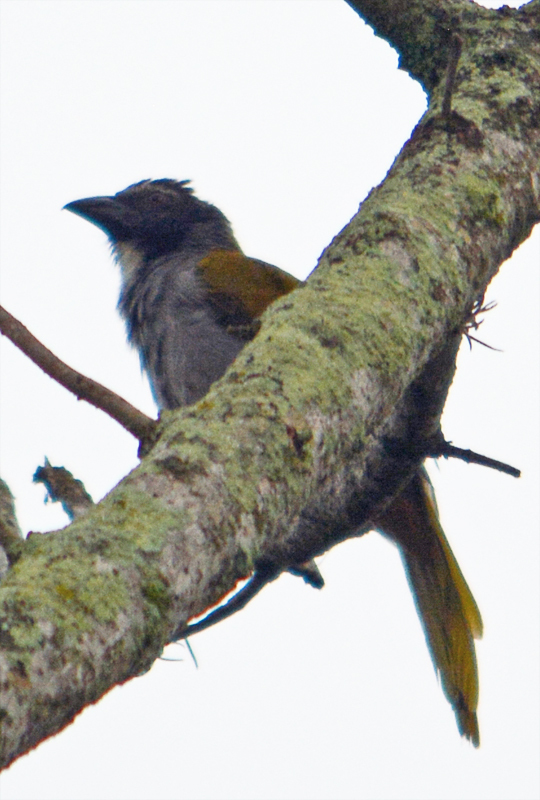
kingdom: Animalia
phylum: Chordata
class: Aves
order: Passeriformes
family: Thraupidae
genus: Saltator
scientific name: Saltator atriceps
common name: Black-headed saltator
